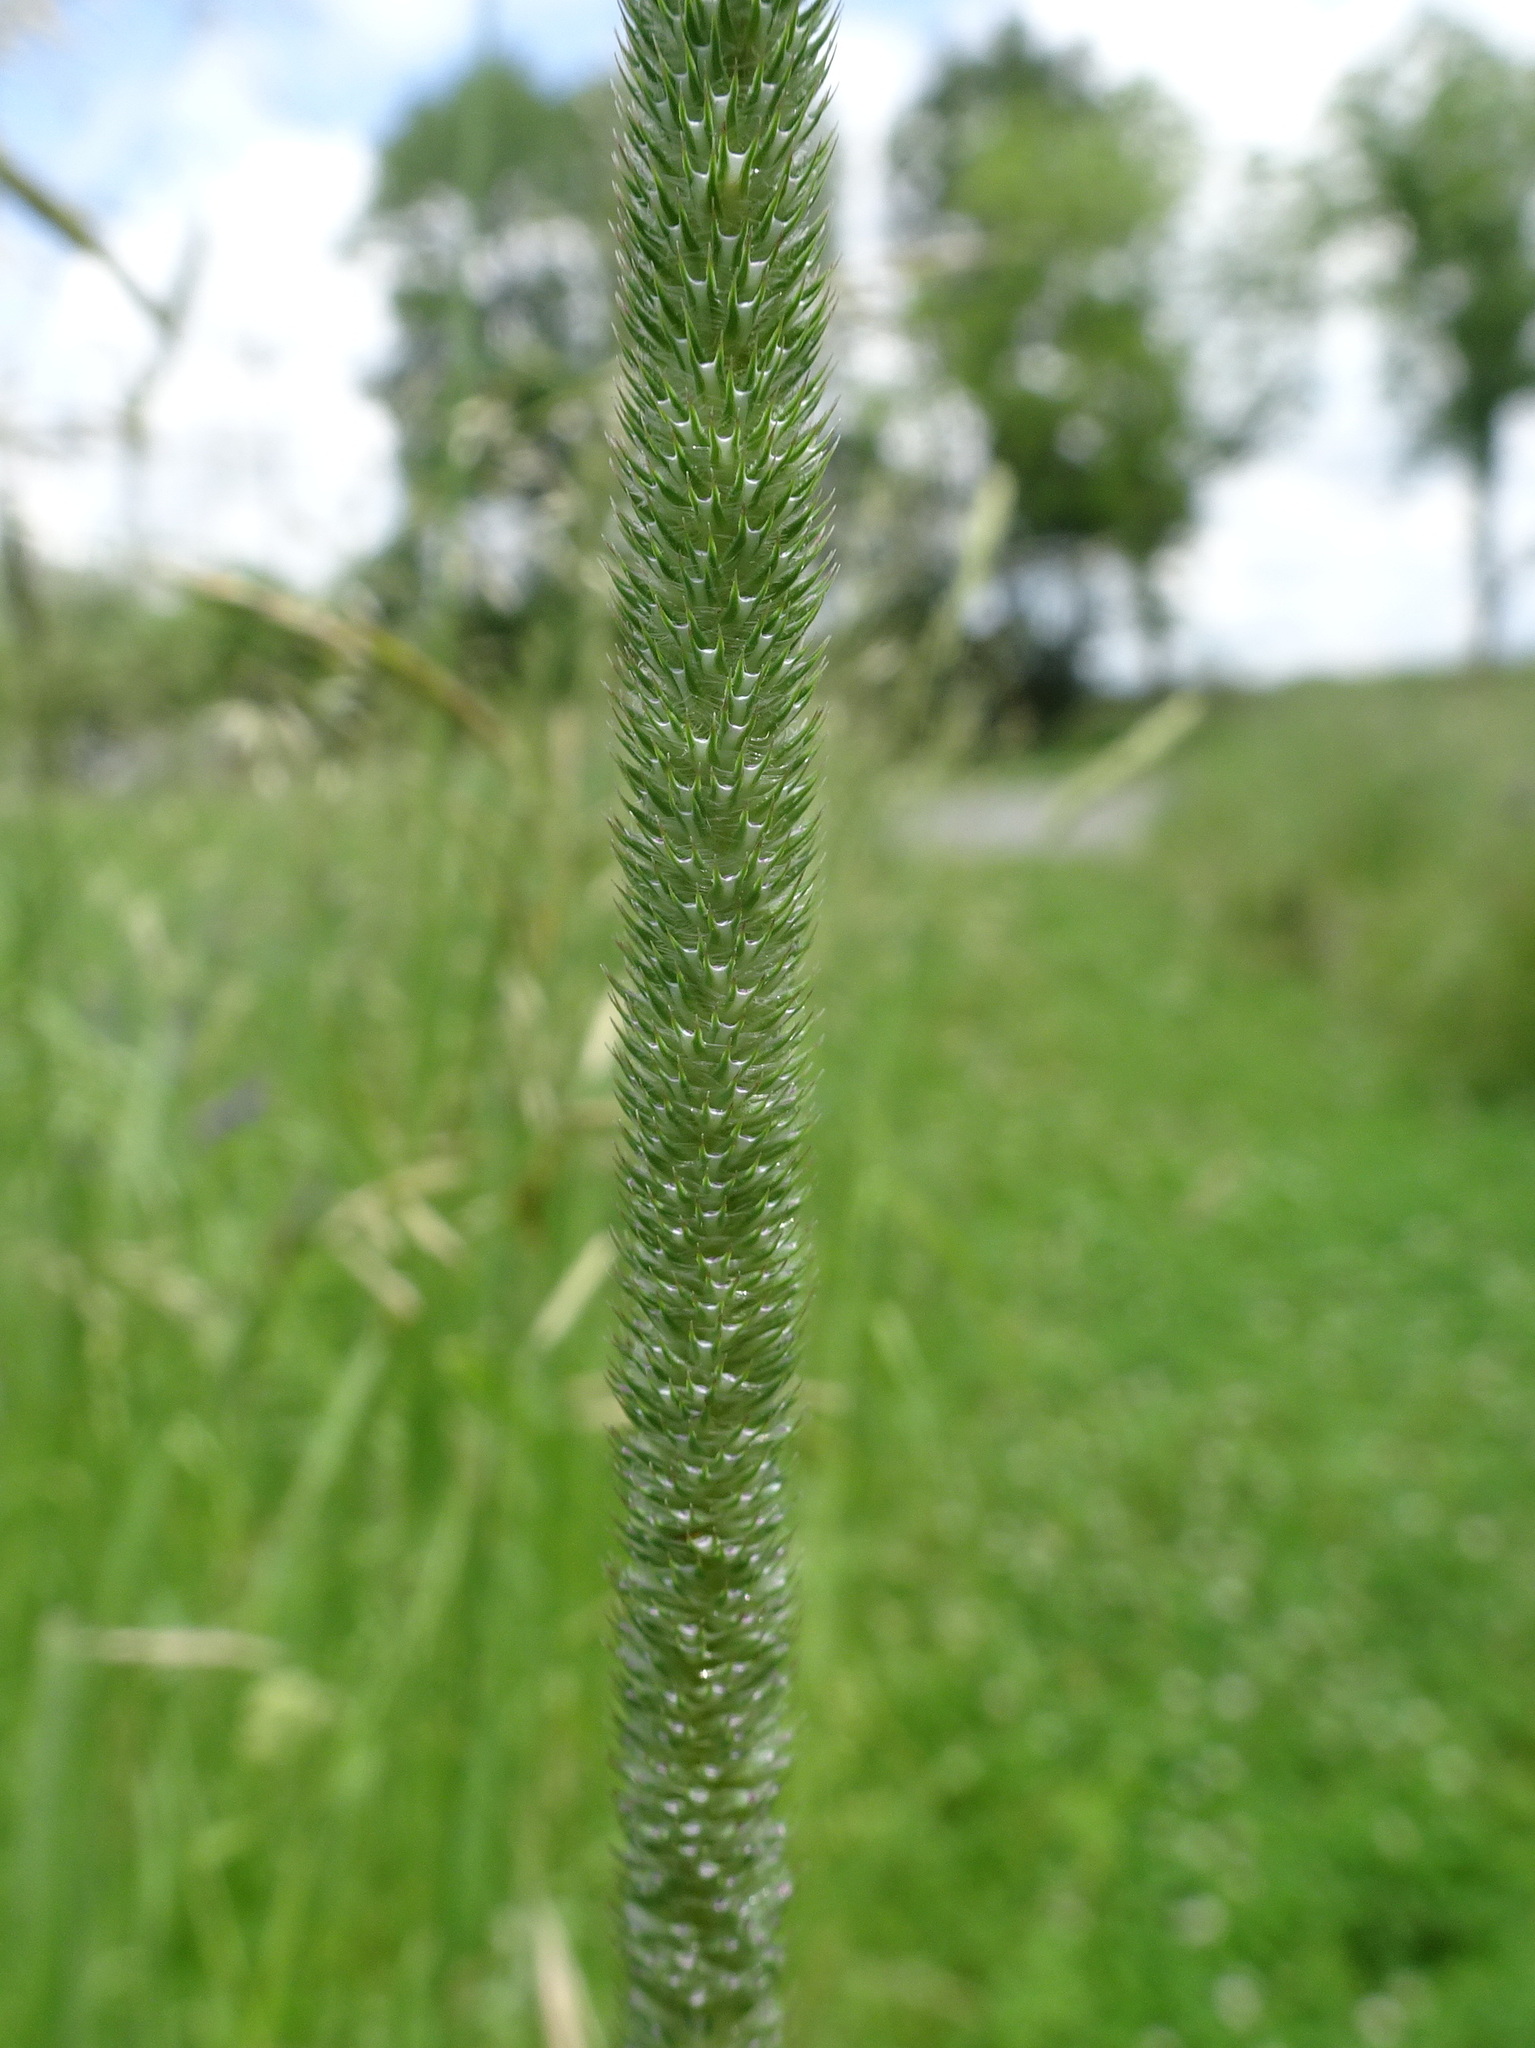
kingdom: Plantae
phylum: Tracheophyta
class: Liliopsida
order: Poales
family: Poaceae
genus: Phleum
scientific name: Phleum pratense
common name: Timothy grass
